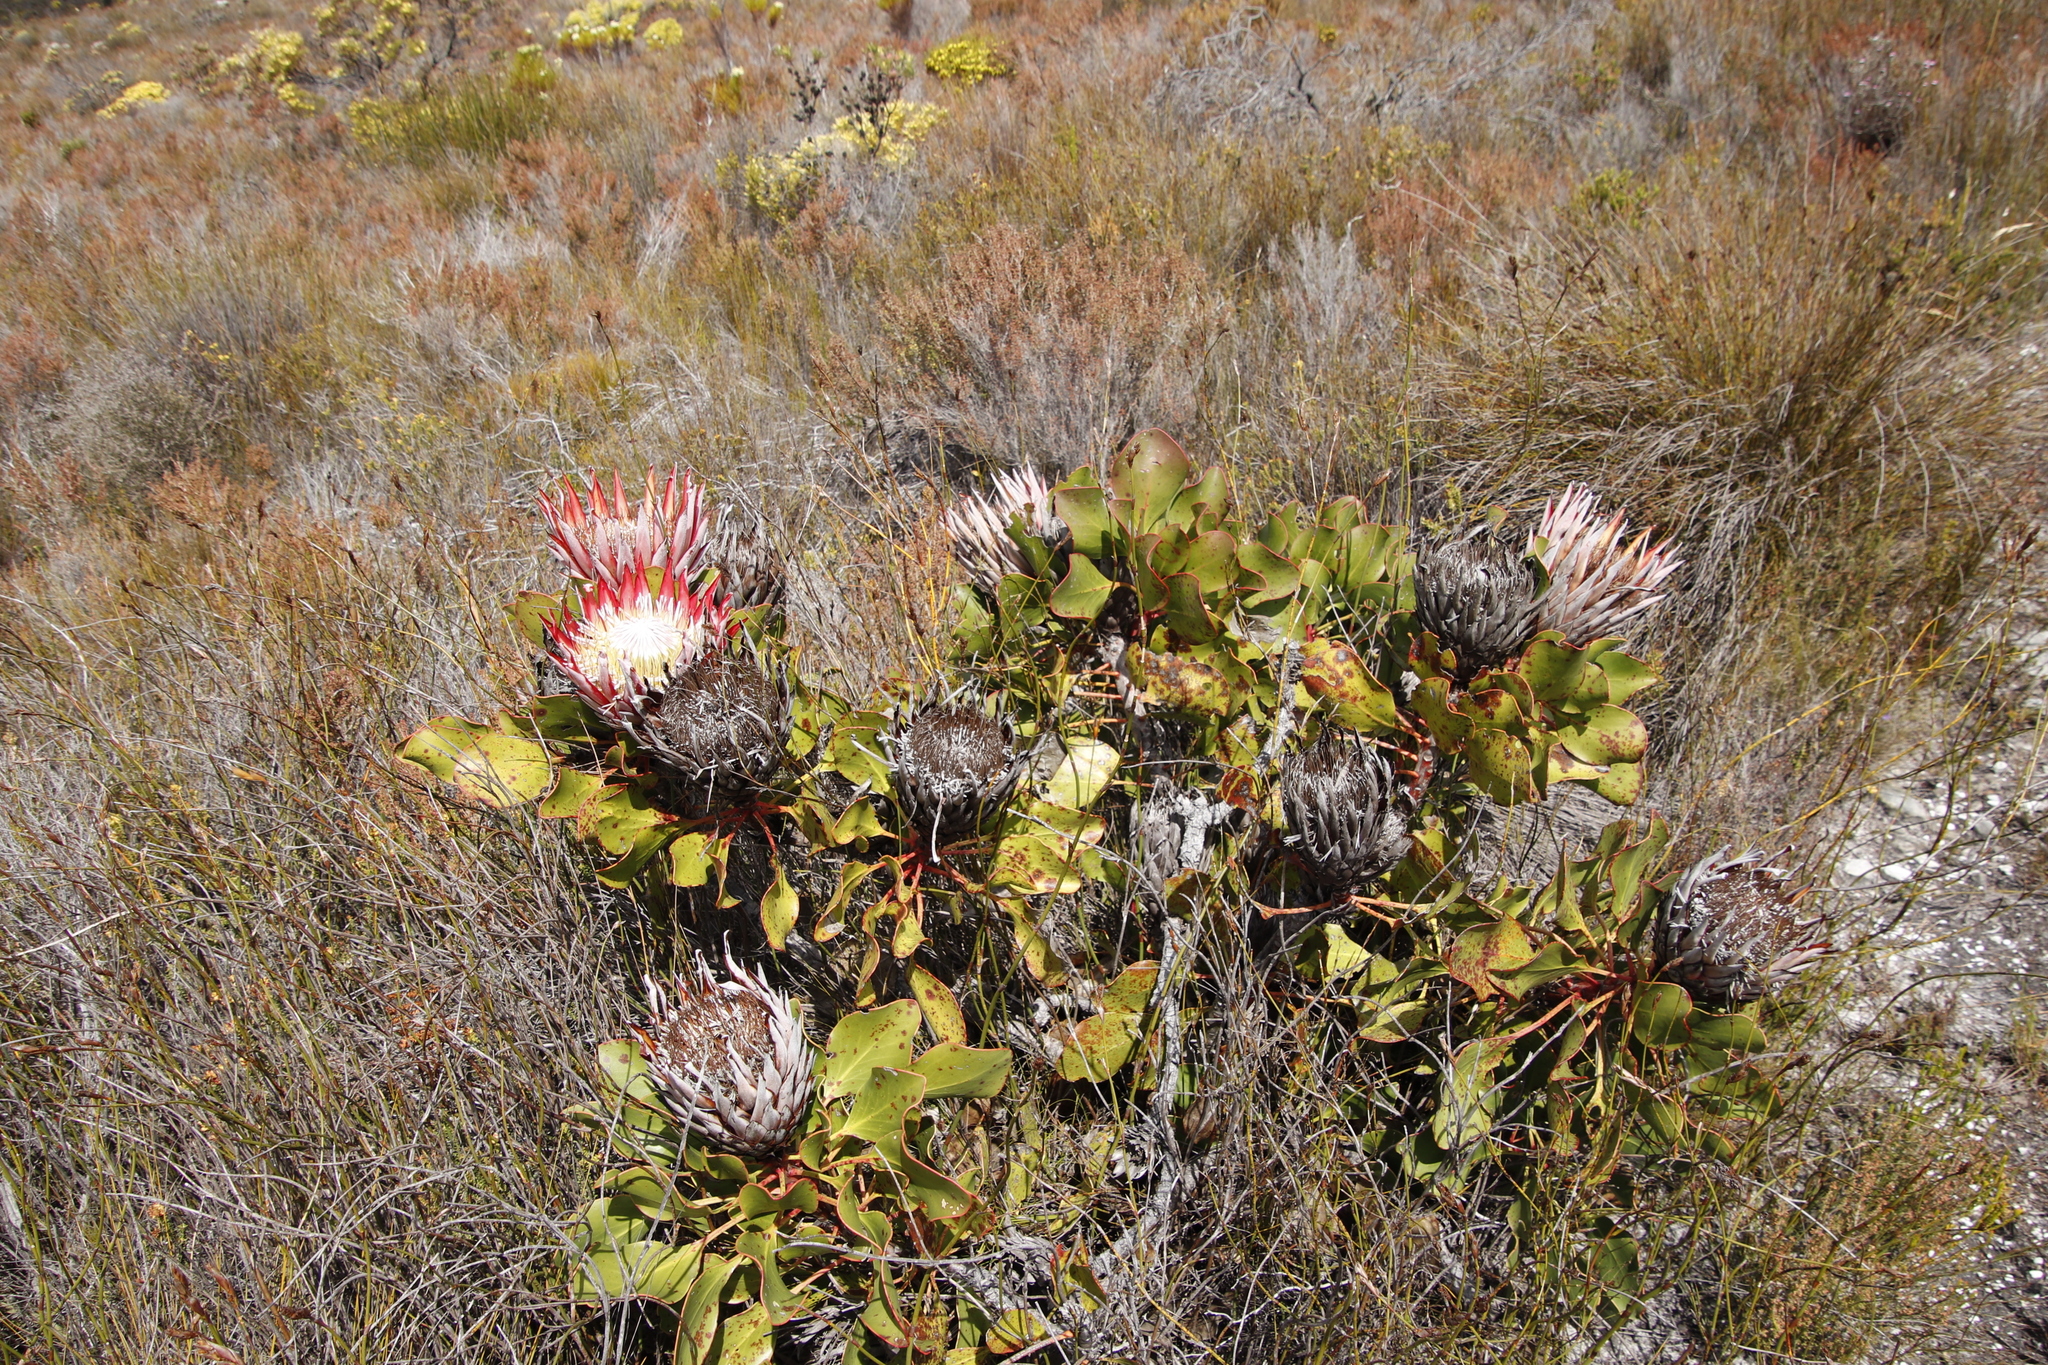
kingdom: Plantae
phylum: Tracheophyta
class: Magnoliopsida
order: Proteales
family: Proteaceae
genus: Protea
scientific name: Protea cynaroides
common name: King protea
